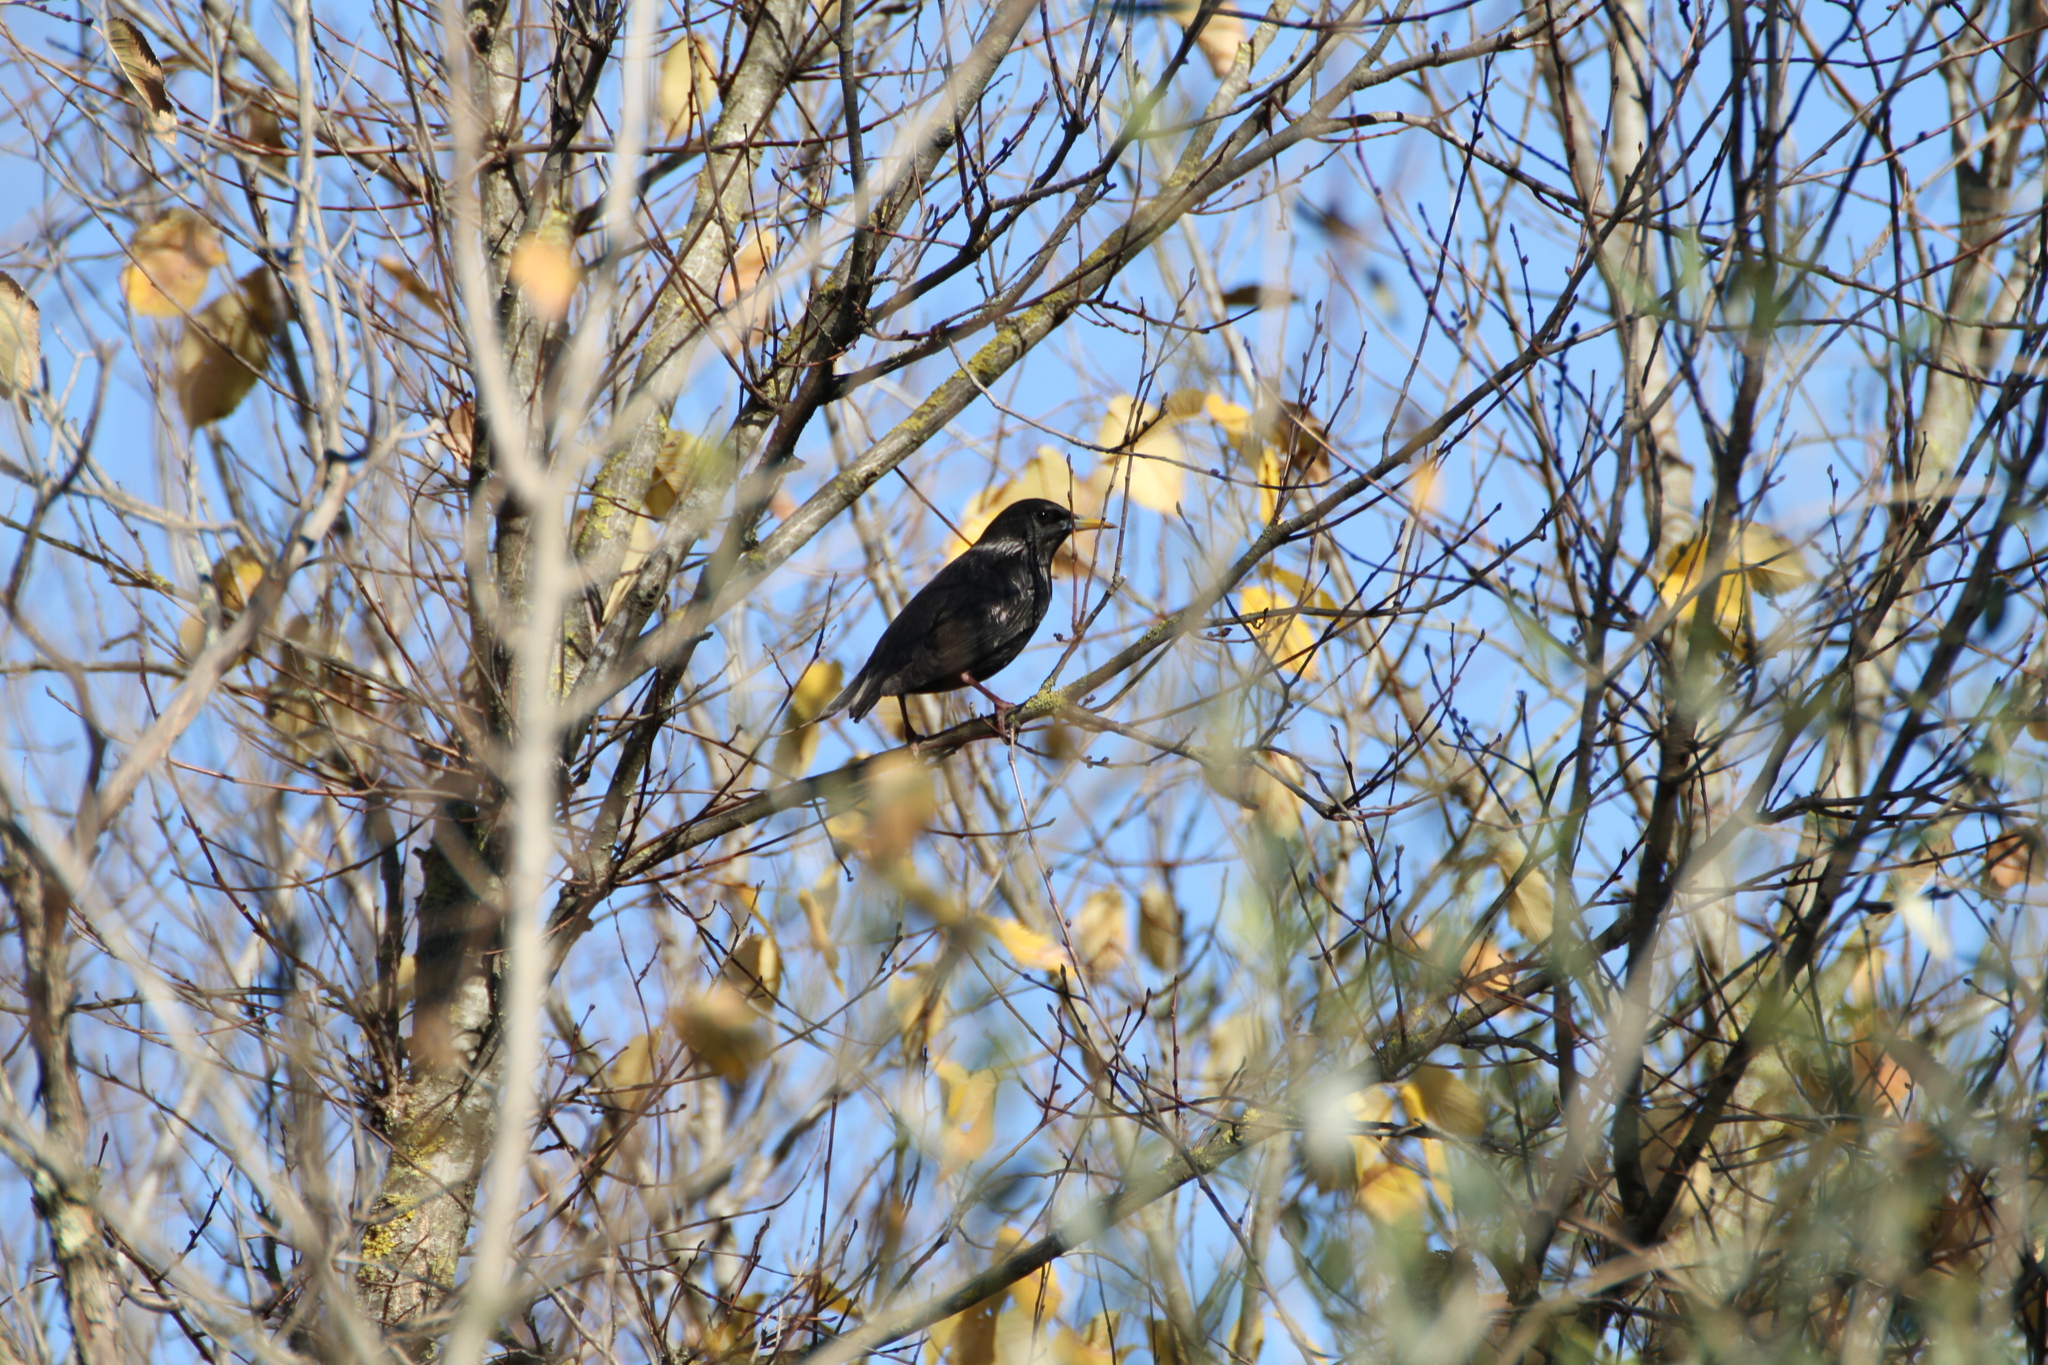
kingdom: Animalia
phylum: Chordata
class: Aves
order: Passeriformes
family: Sturnidae
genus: Sturnus
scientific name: Sturnus unicolor
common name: Spotless starling
